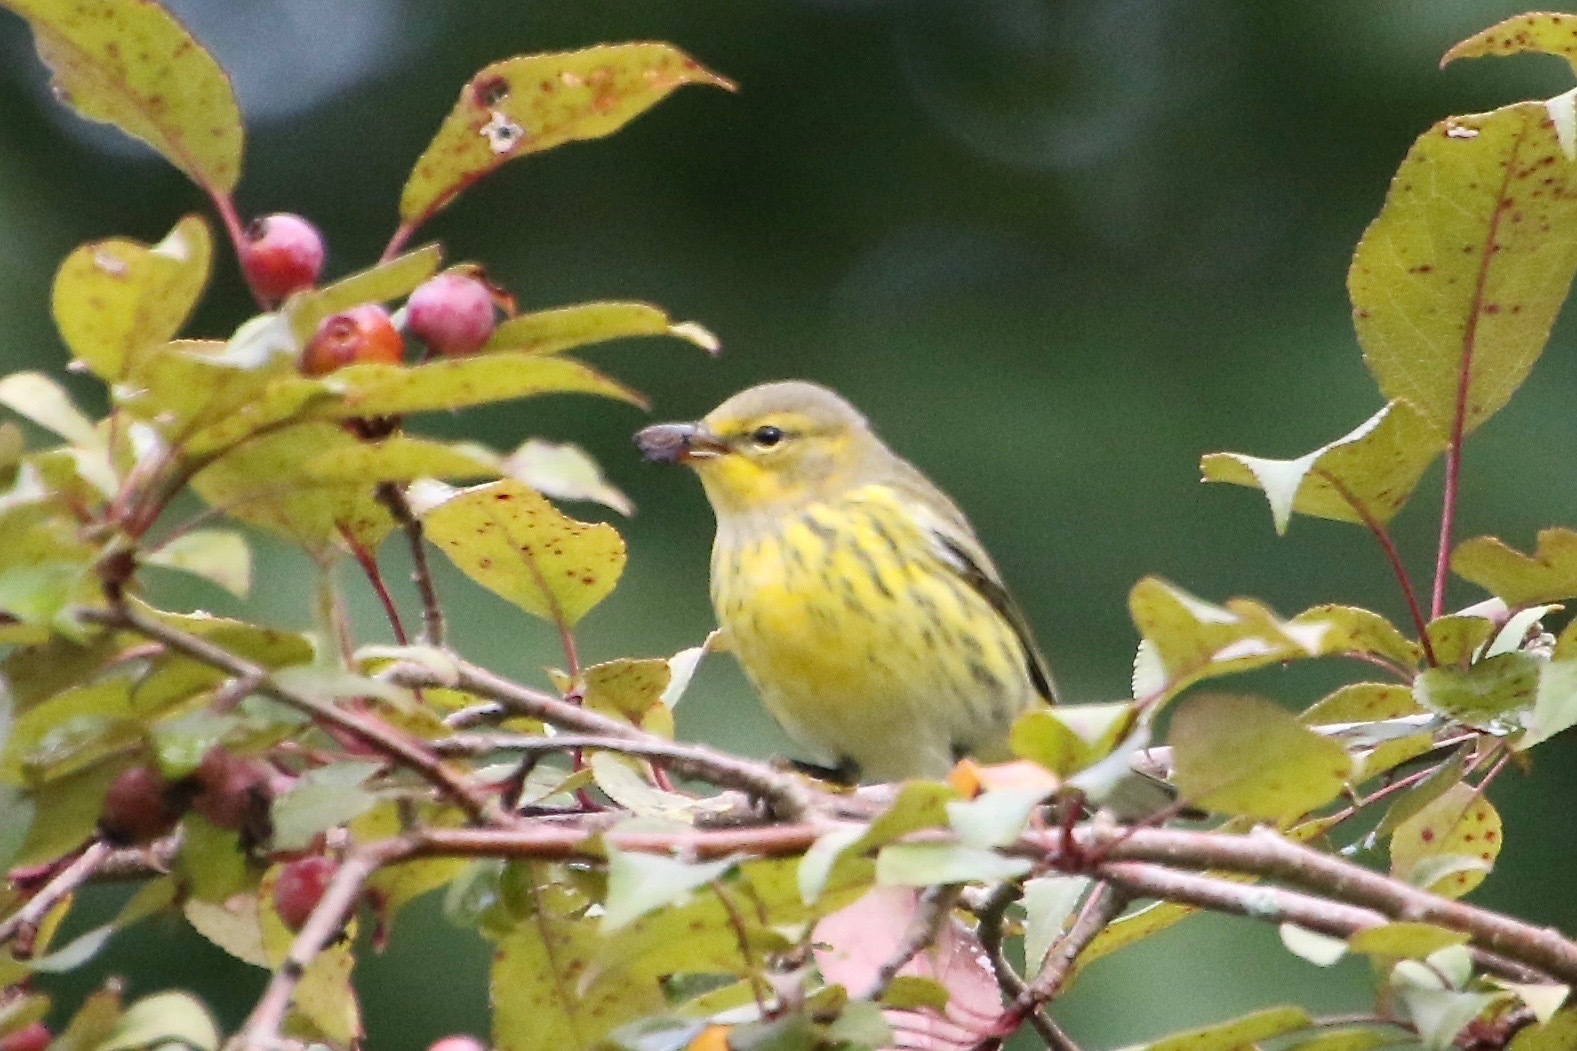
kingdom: Animalia
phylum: Chordata
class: Aves
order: Passeriformes
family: Parulidae
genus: Setophaga
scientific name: Setophaga tigrina
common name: Cape may warbler
